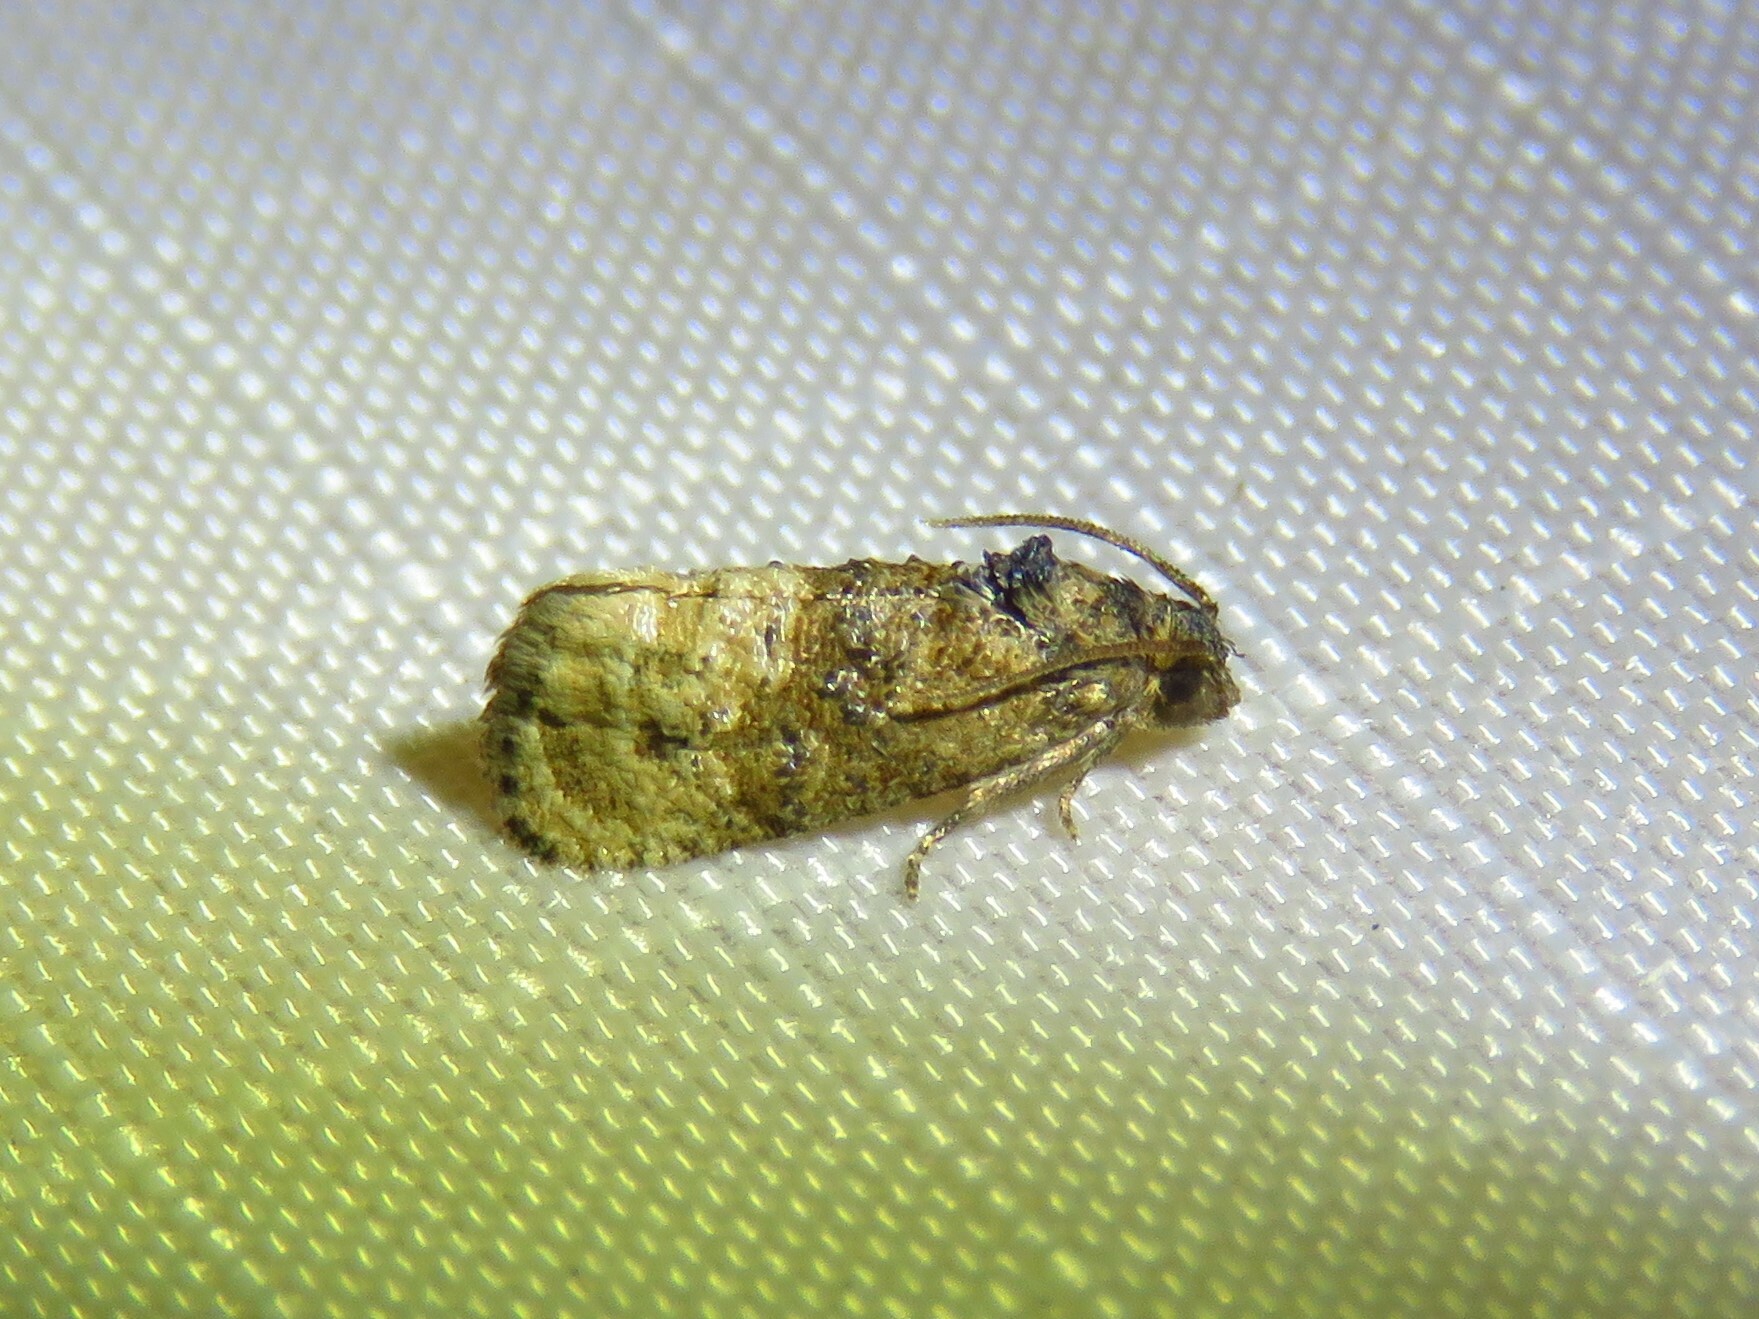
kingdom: Animalia
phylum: Arthropoda
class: Insecta
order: Lepidoptera
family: Tortricidae
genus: Ecdytolopha
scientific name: Ecdytolopha mana
